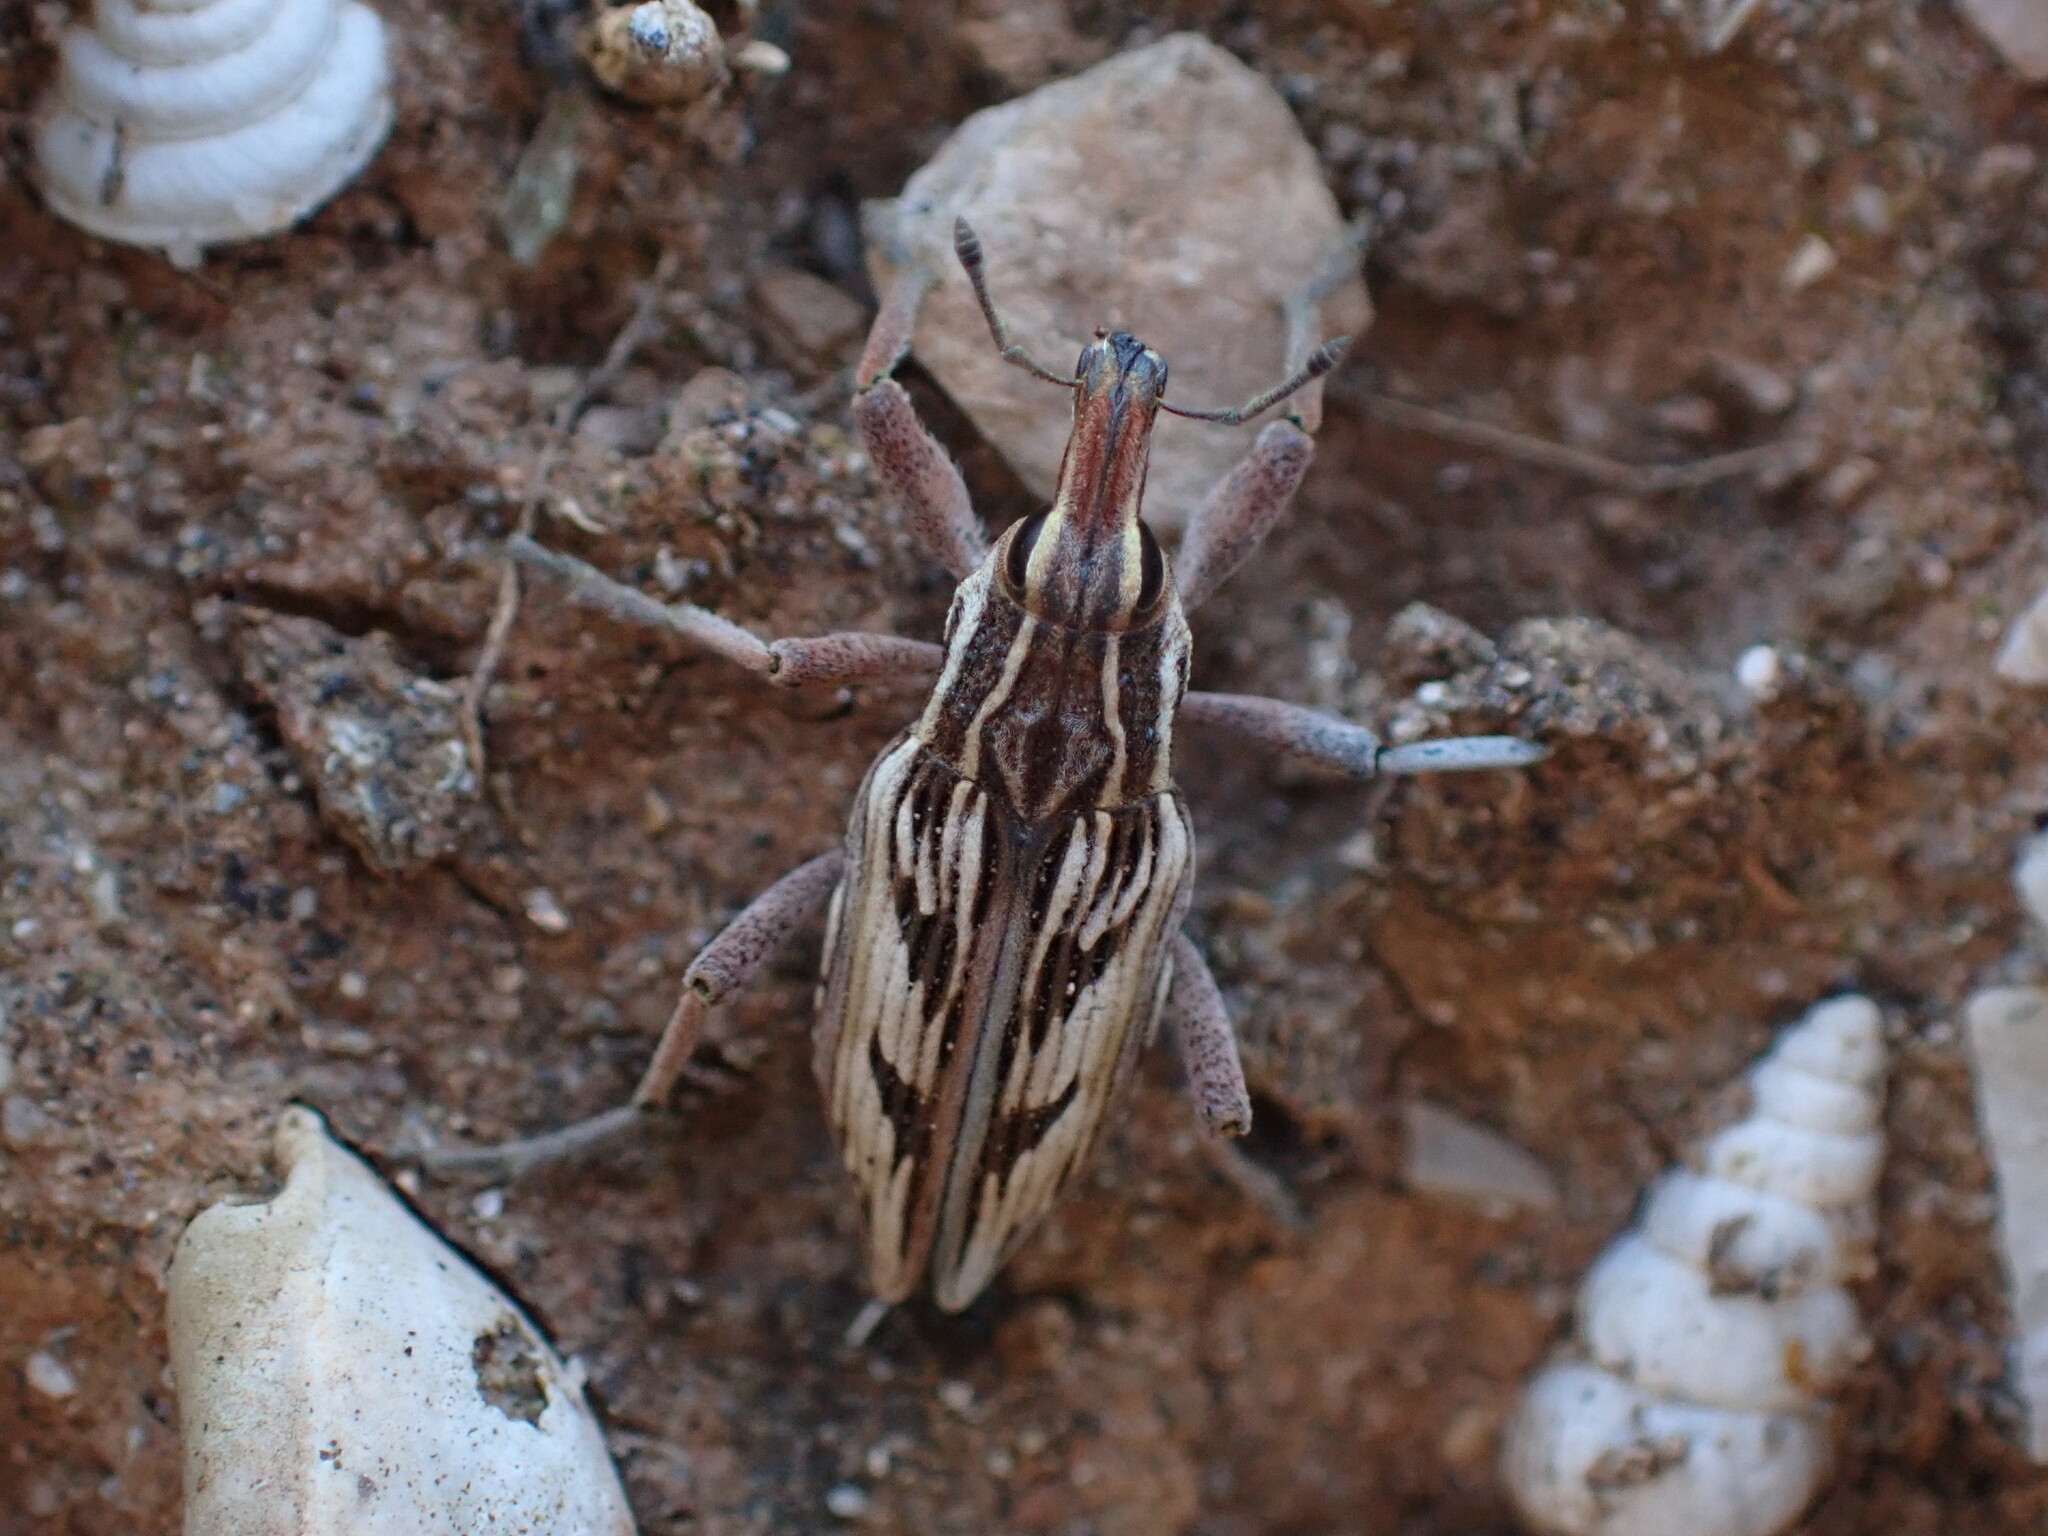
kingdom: Animalia
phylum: Arthropoda
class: Insecta
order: Coleoptera
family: Curculionidae
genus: Coniocleonus
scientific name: Coniocleonus nigrosuturatus
